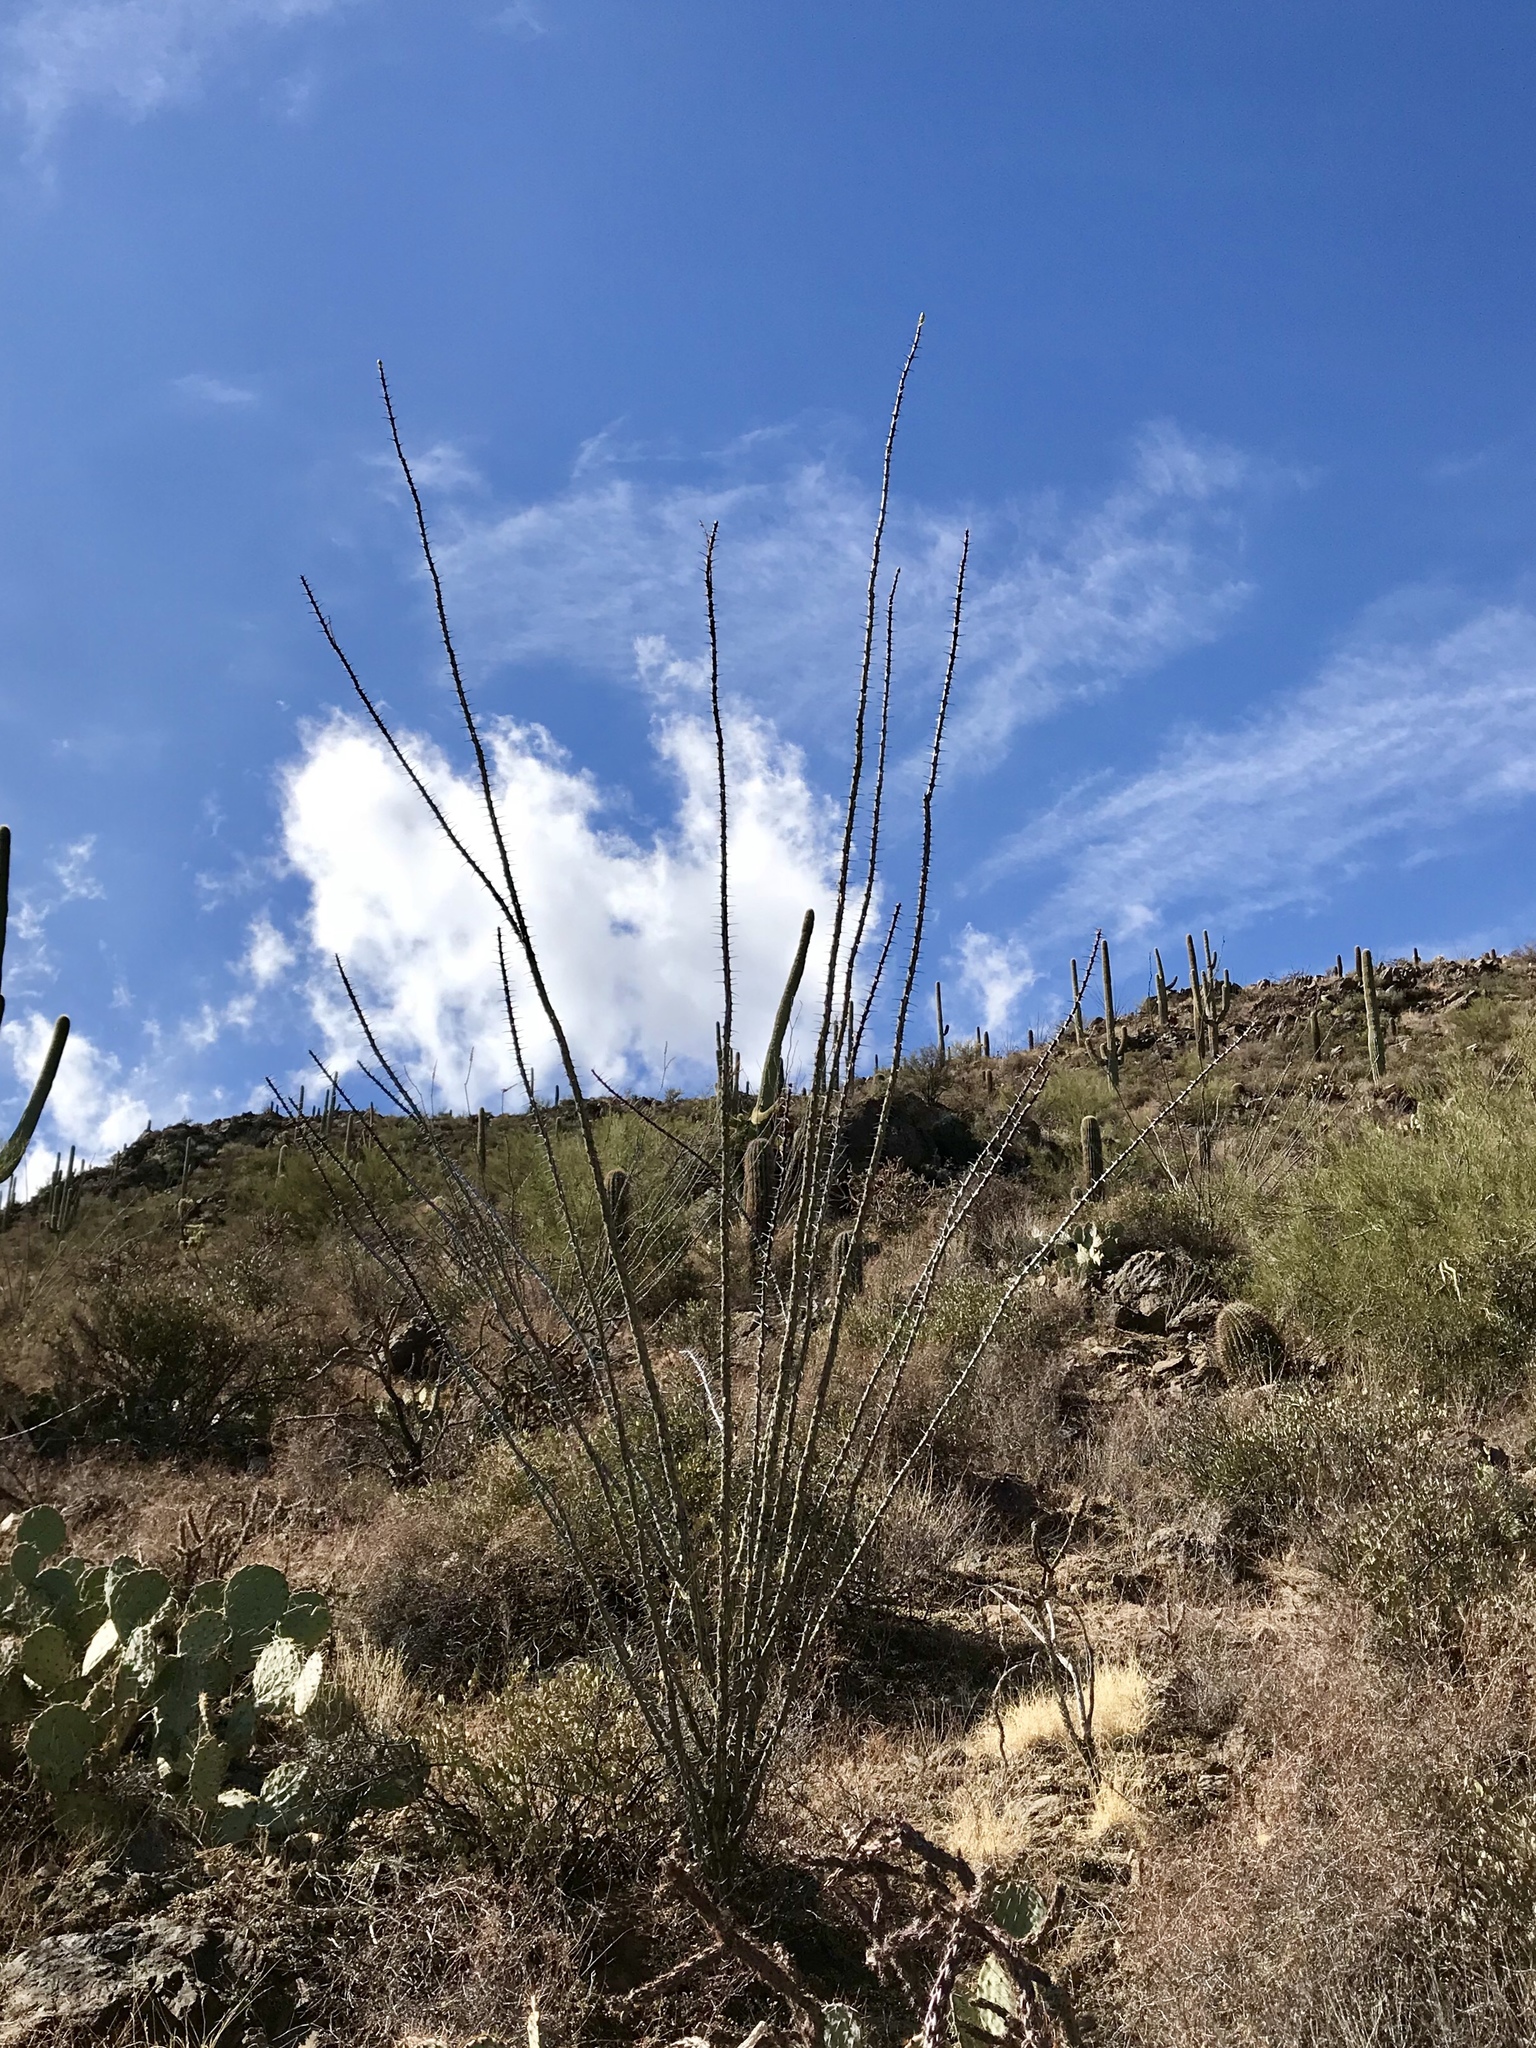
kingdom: Plantae
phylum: Tracheophyta
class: Magnoliopsida
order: Ericales
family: Fouquieriaceae
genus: Fouquieria
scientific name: Fouquieria splendens
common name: Vine-cactus
